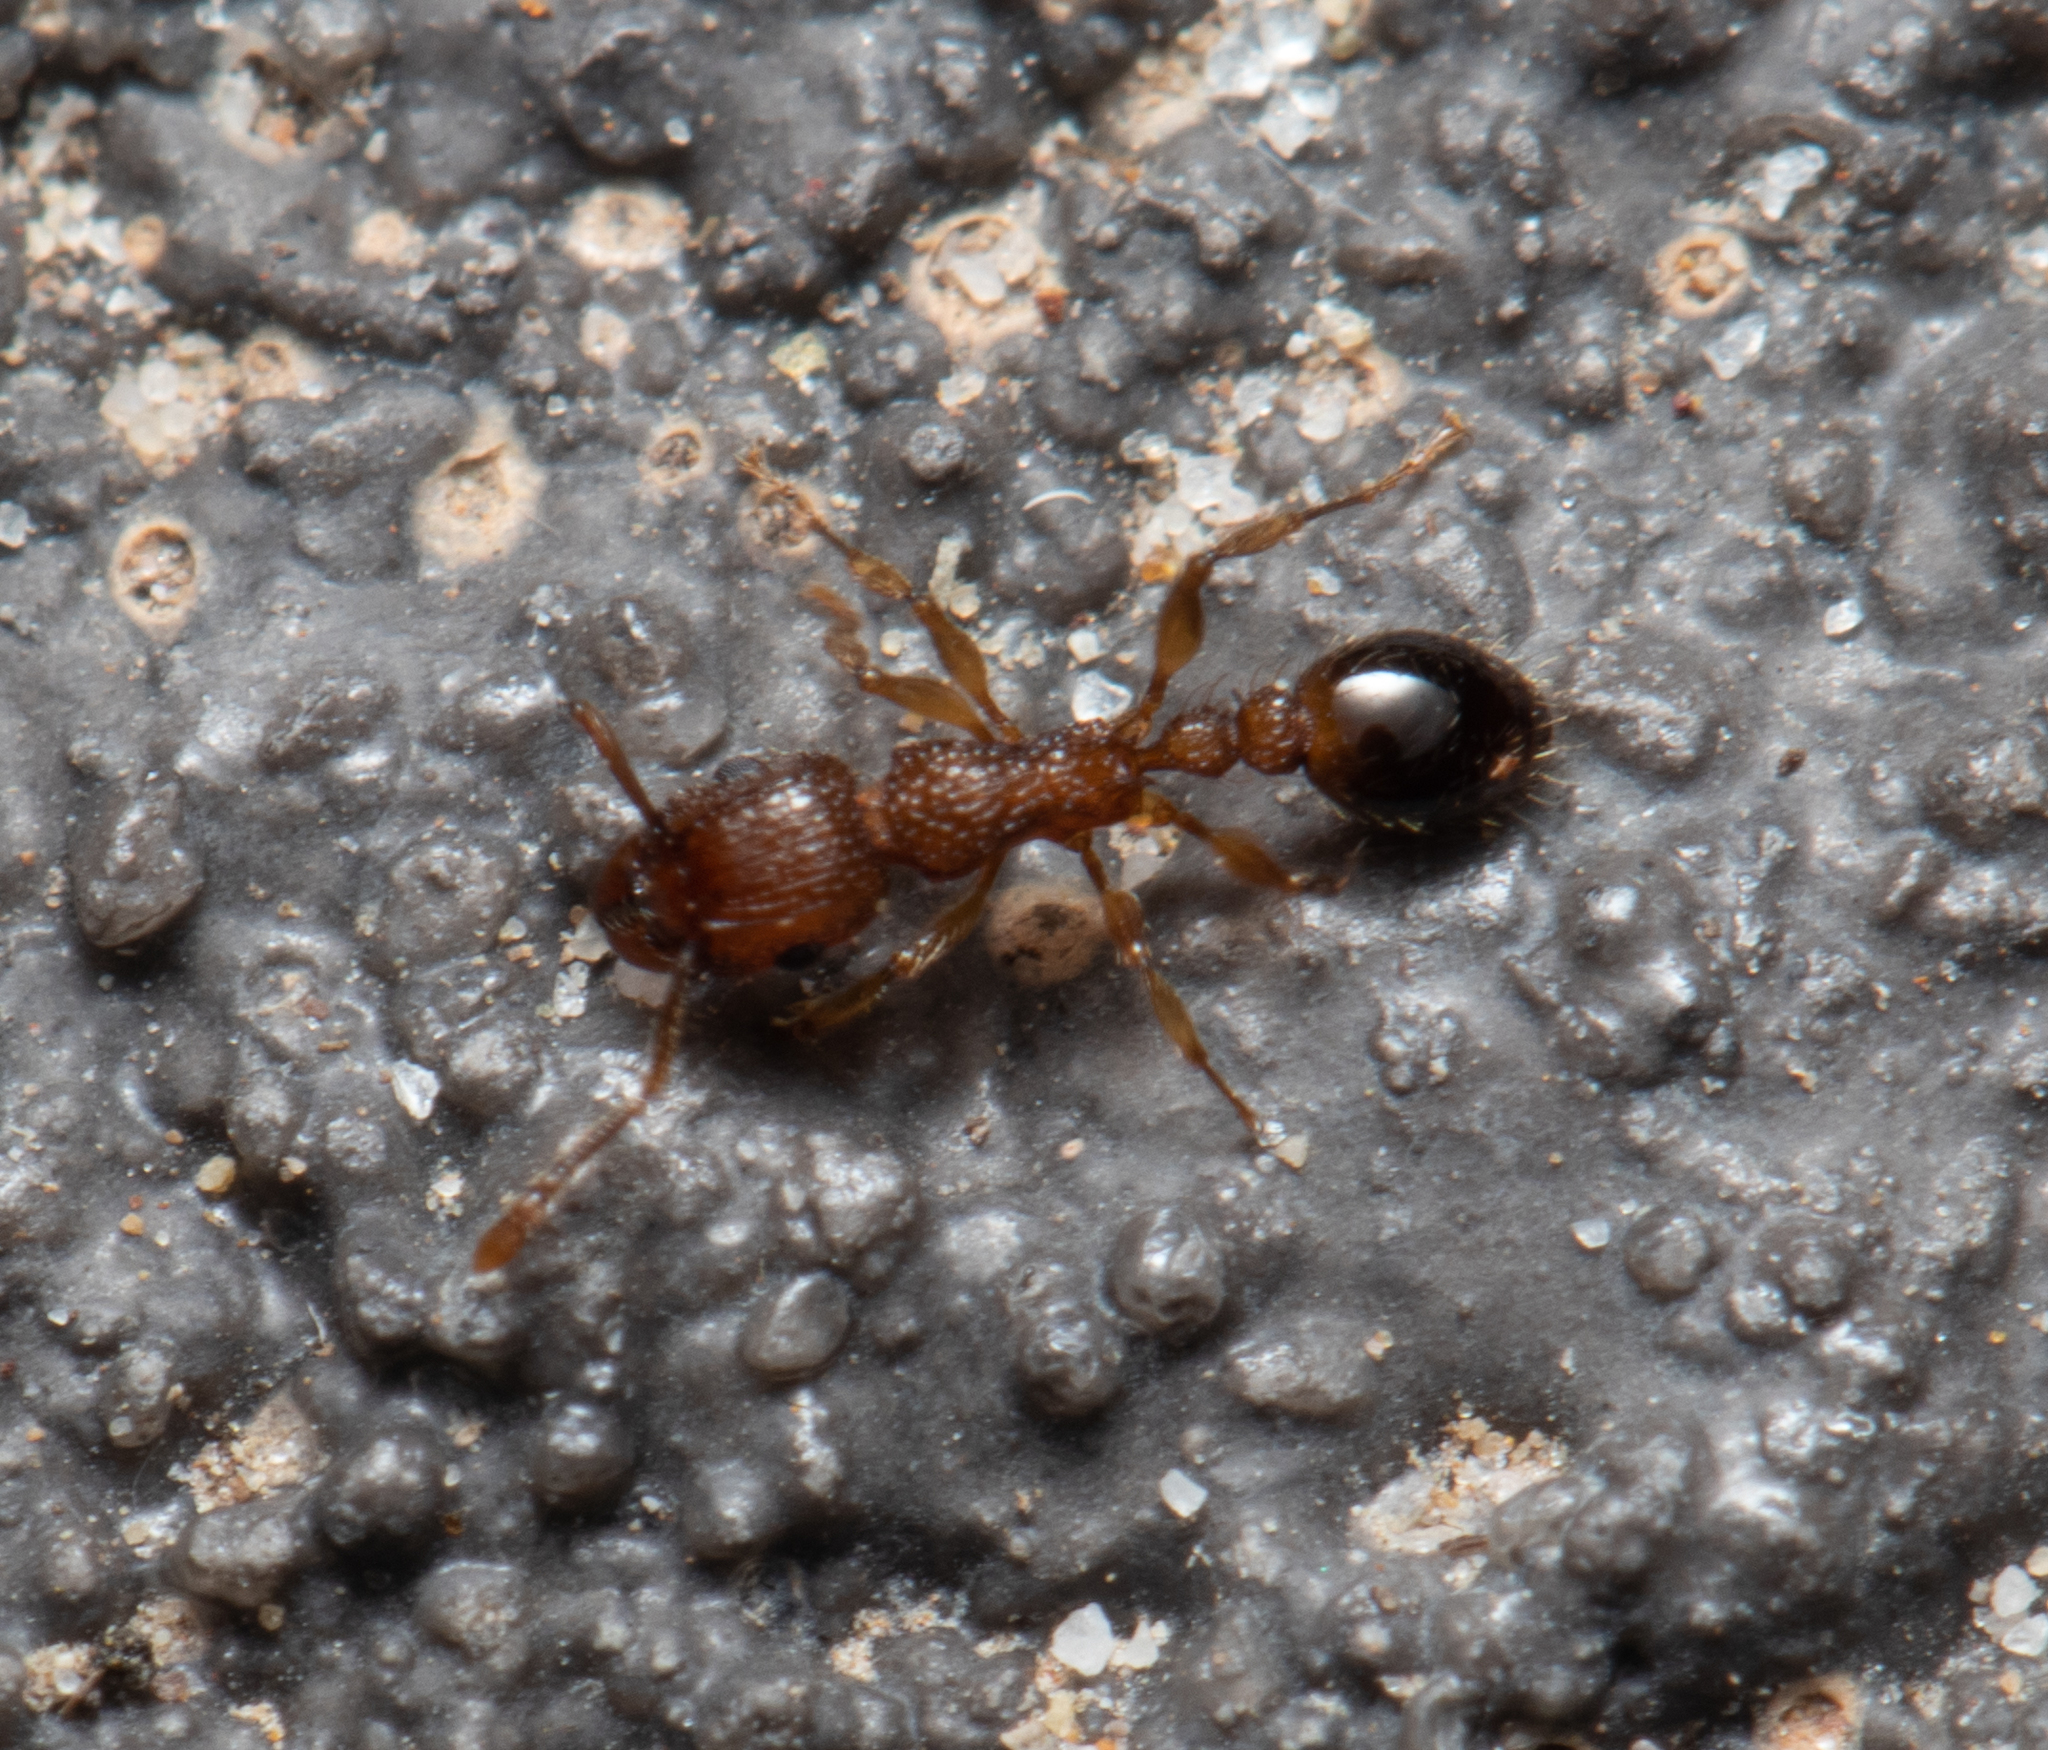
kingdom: Animalia
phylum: Arthropoda
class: Insecta
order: Hymenoptera
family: Formicidae
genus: Tetramorium
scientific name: Tetramorium bicarinatum
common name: Guinea ant
